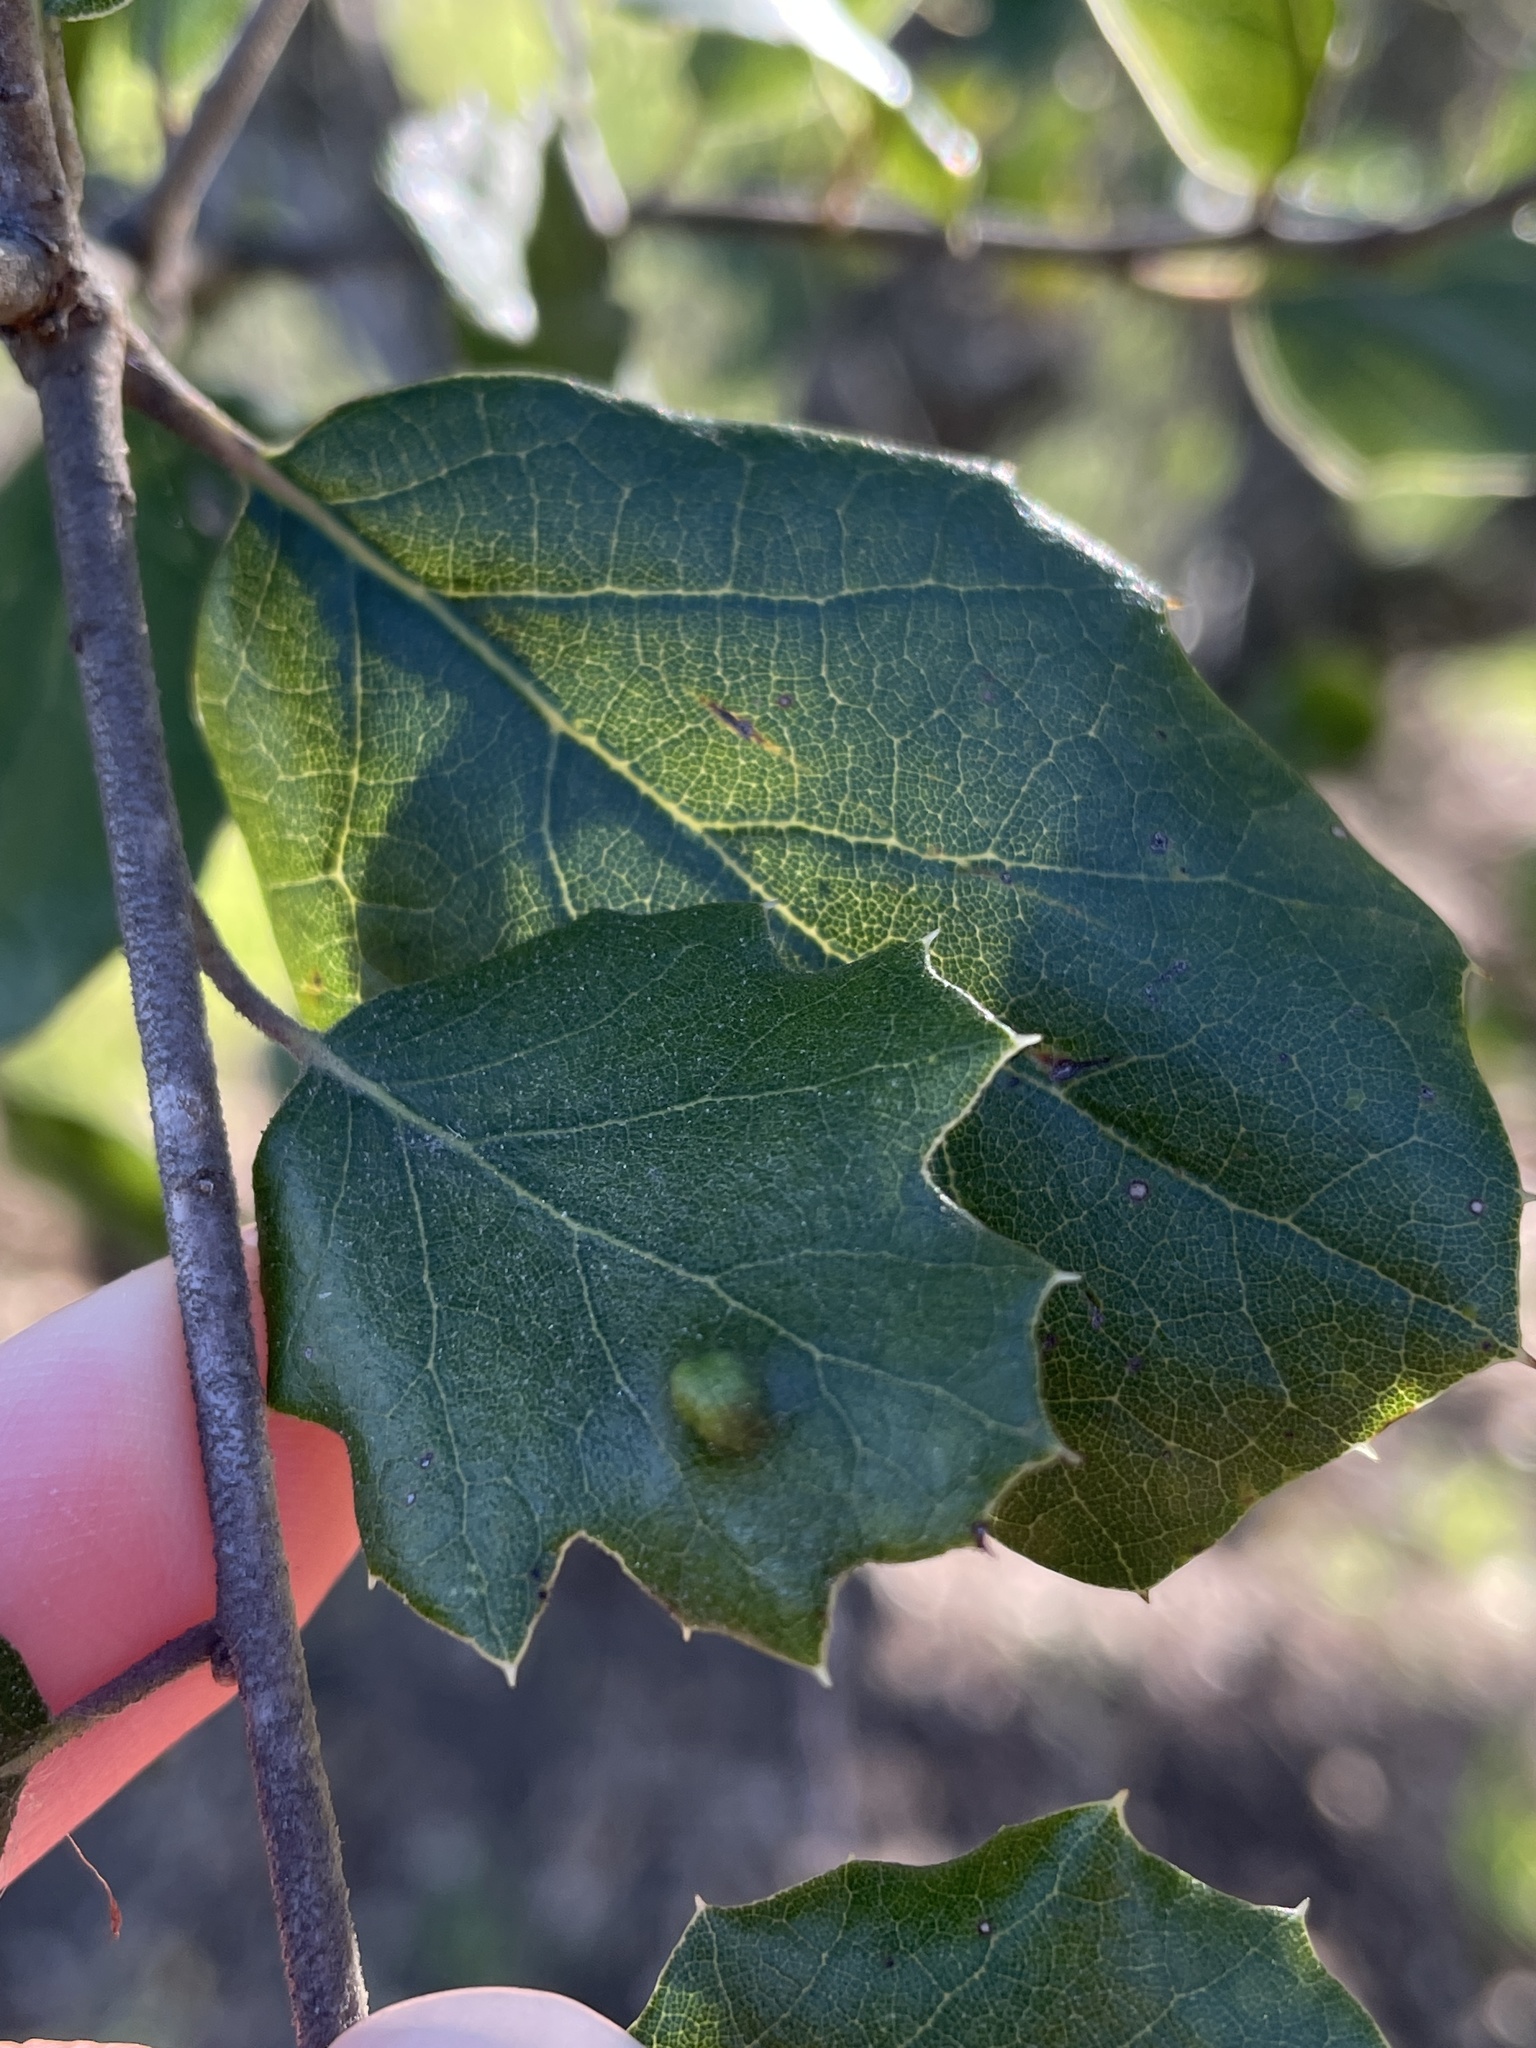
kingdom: Animalia
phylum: Arthropoda
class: Arachnida
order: Trombidiformes
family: Eriophyidae
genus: Aceria
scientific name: Aceria
